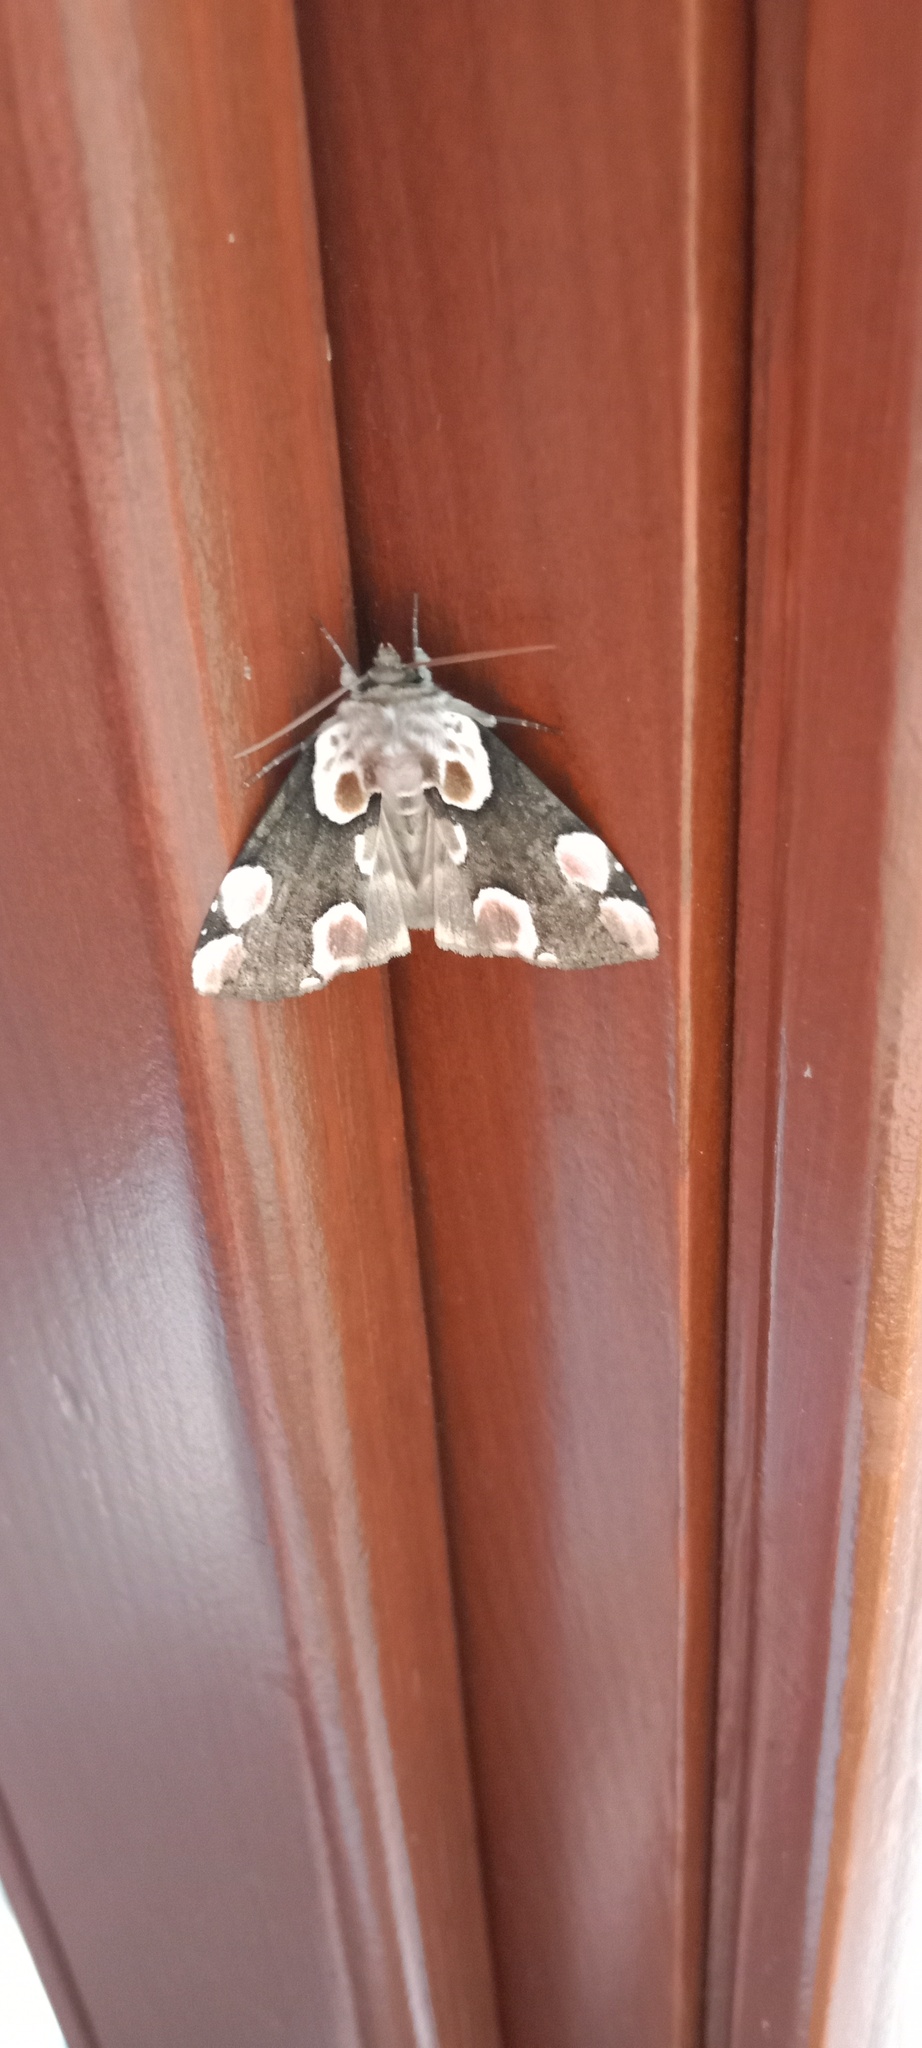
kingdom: Animalia
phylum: Arthropoda
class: Insecta
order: Lepidoptera
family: Drepanidae
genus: Thyatira
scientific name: Thyatira batis
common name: Peach blossom
